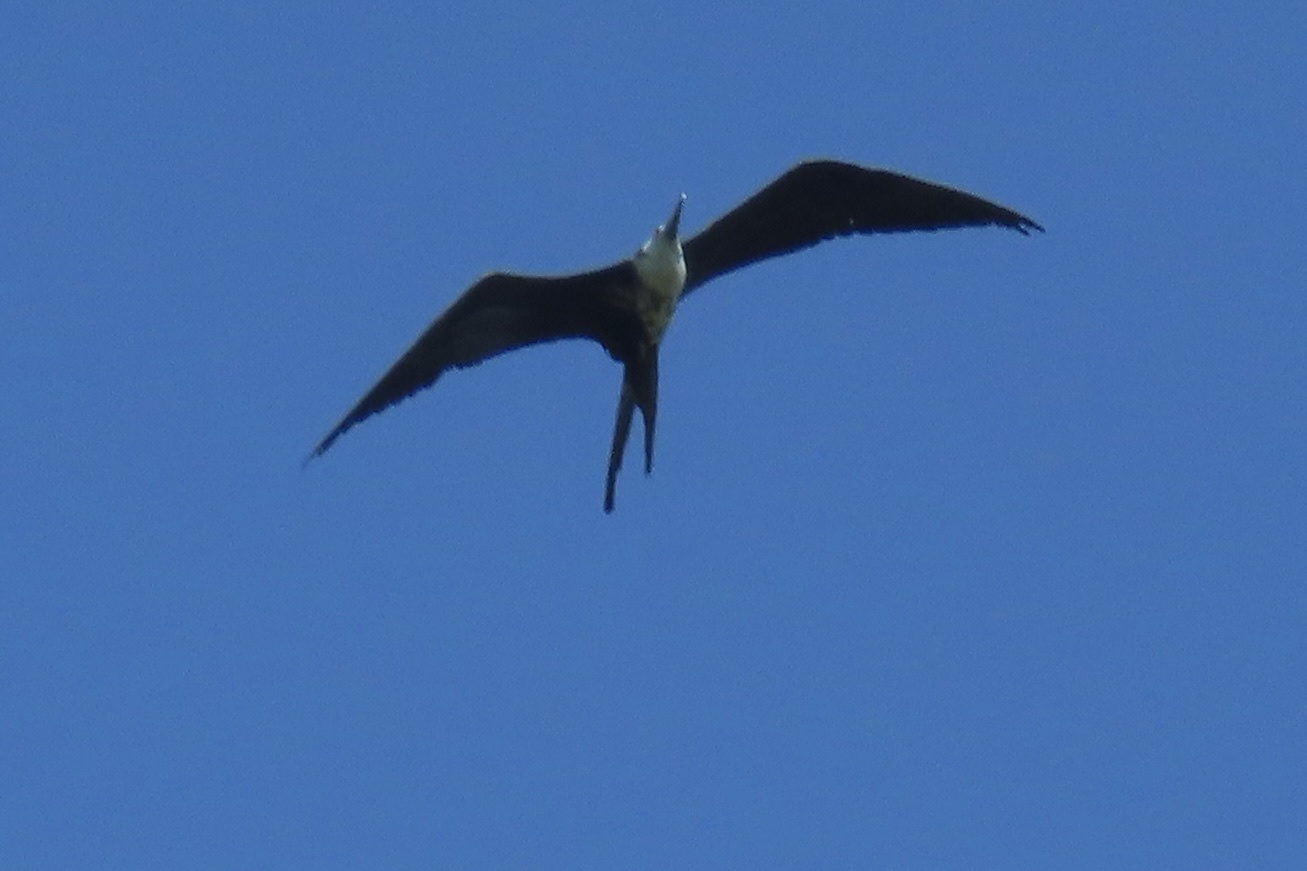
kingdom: Animalia
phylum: Chordata
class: Aves
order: Suliformes
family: Fregatidae
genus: Fregata
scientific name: Fregata magnificens
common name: Magnificent frigatebird
